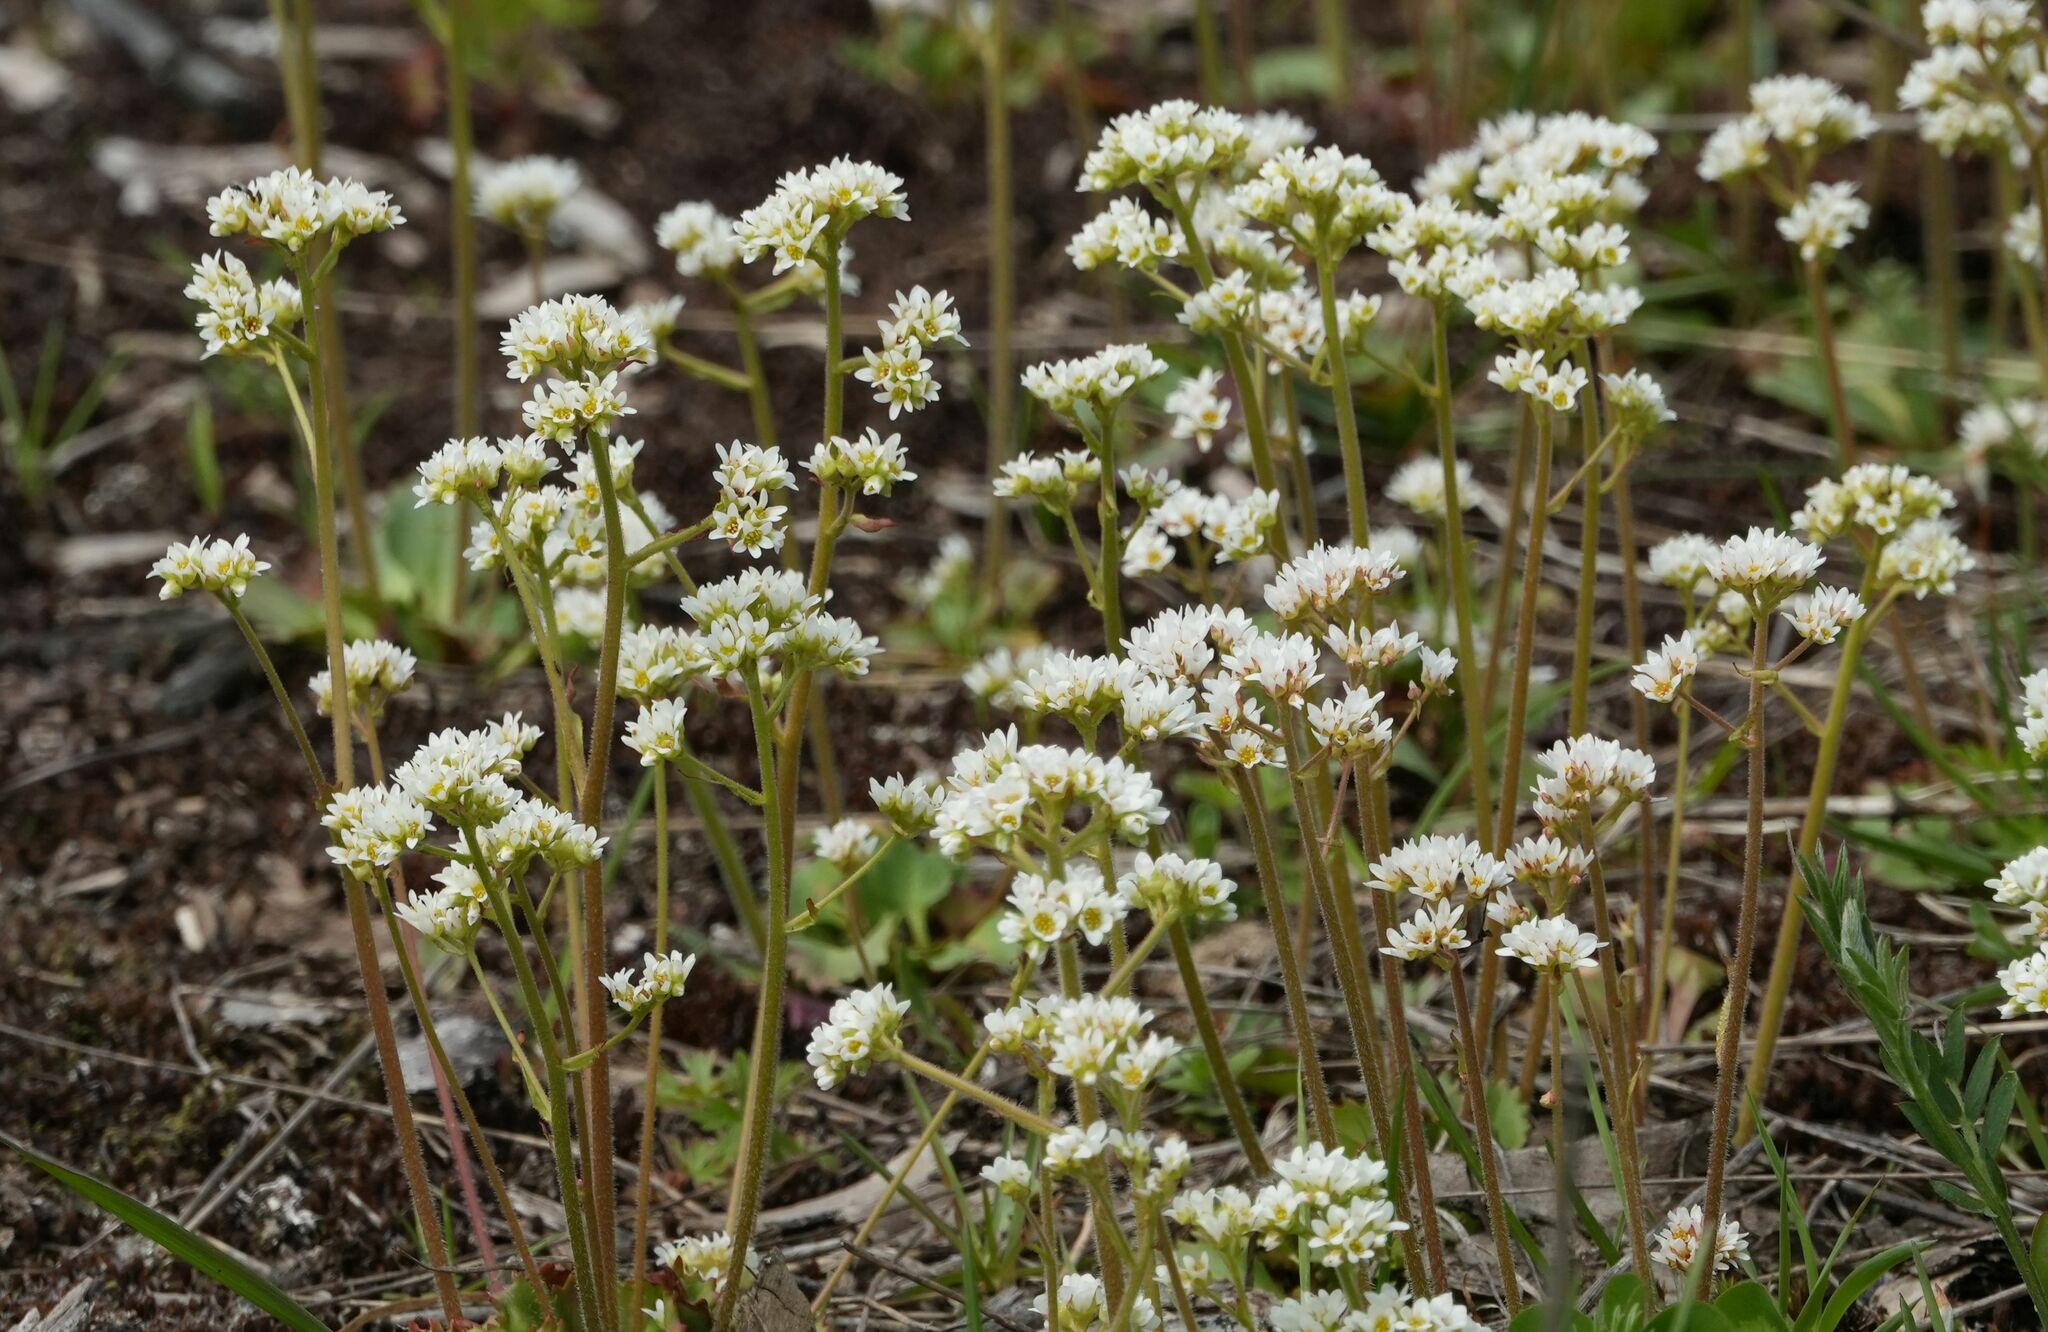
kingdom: Plantae
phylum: Tracheophyta
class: Magnoliopsida
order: Saxifragales
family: Saxifragaceae
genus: Micranthes
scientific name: Micranthes virginiensis
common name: Early saxifrage
